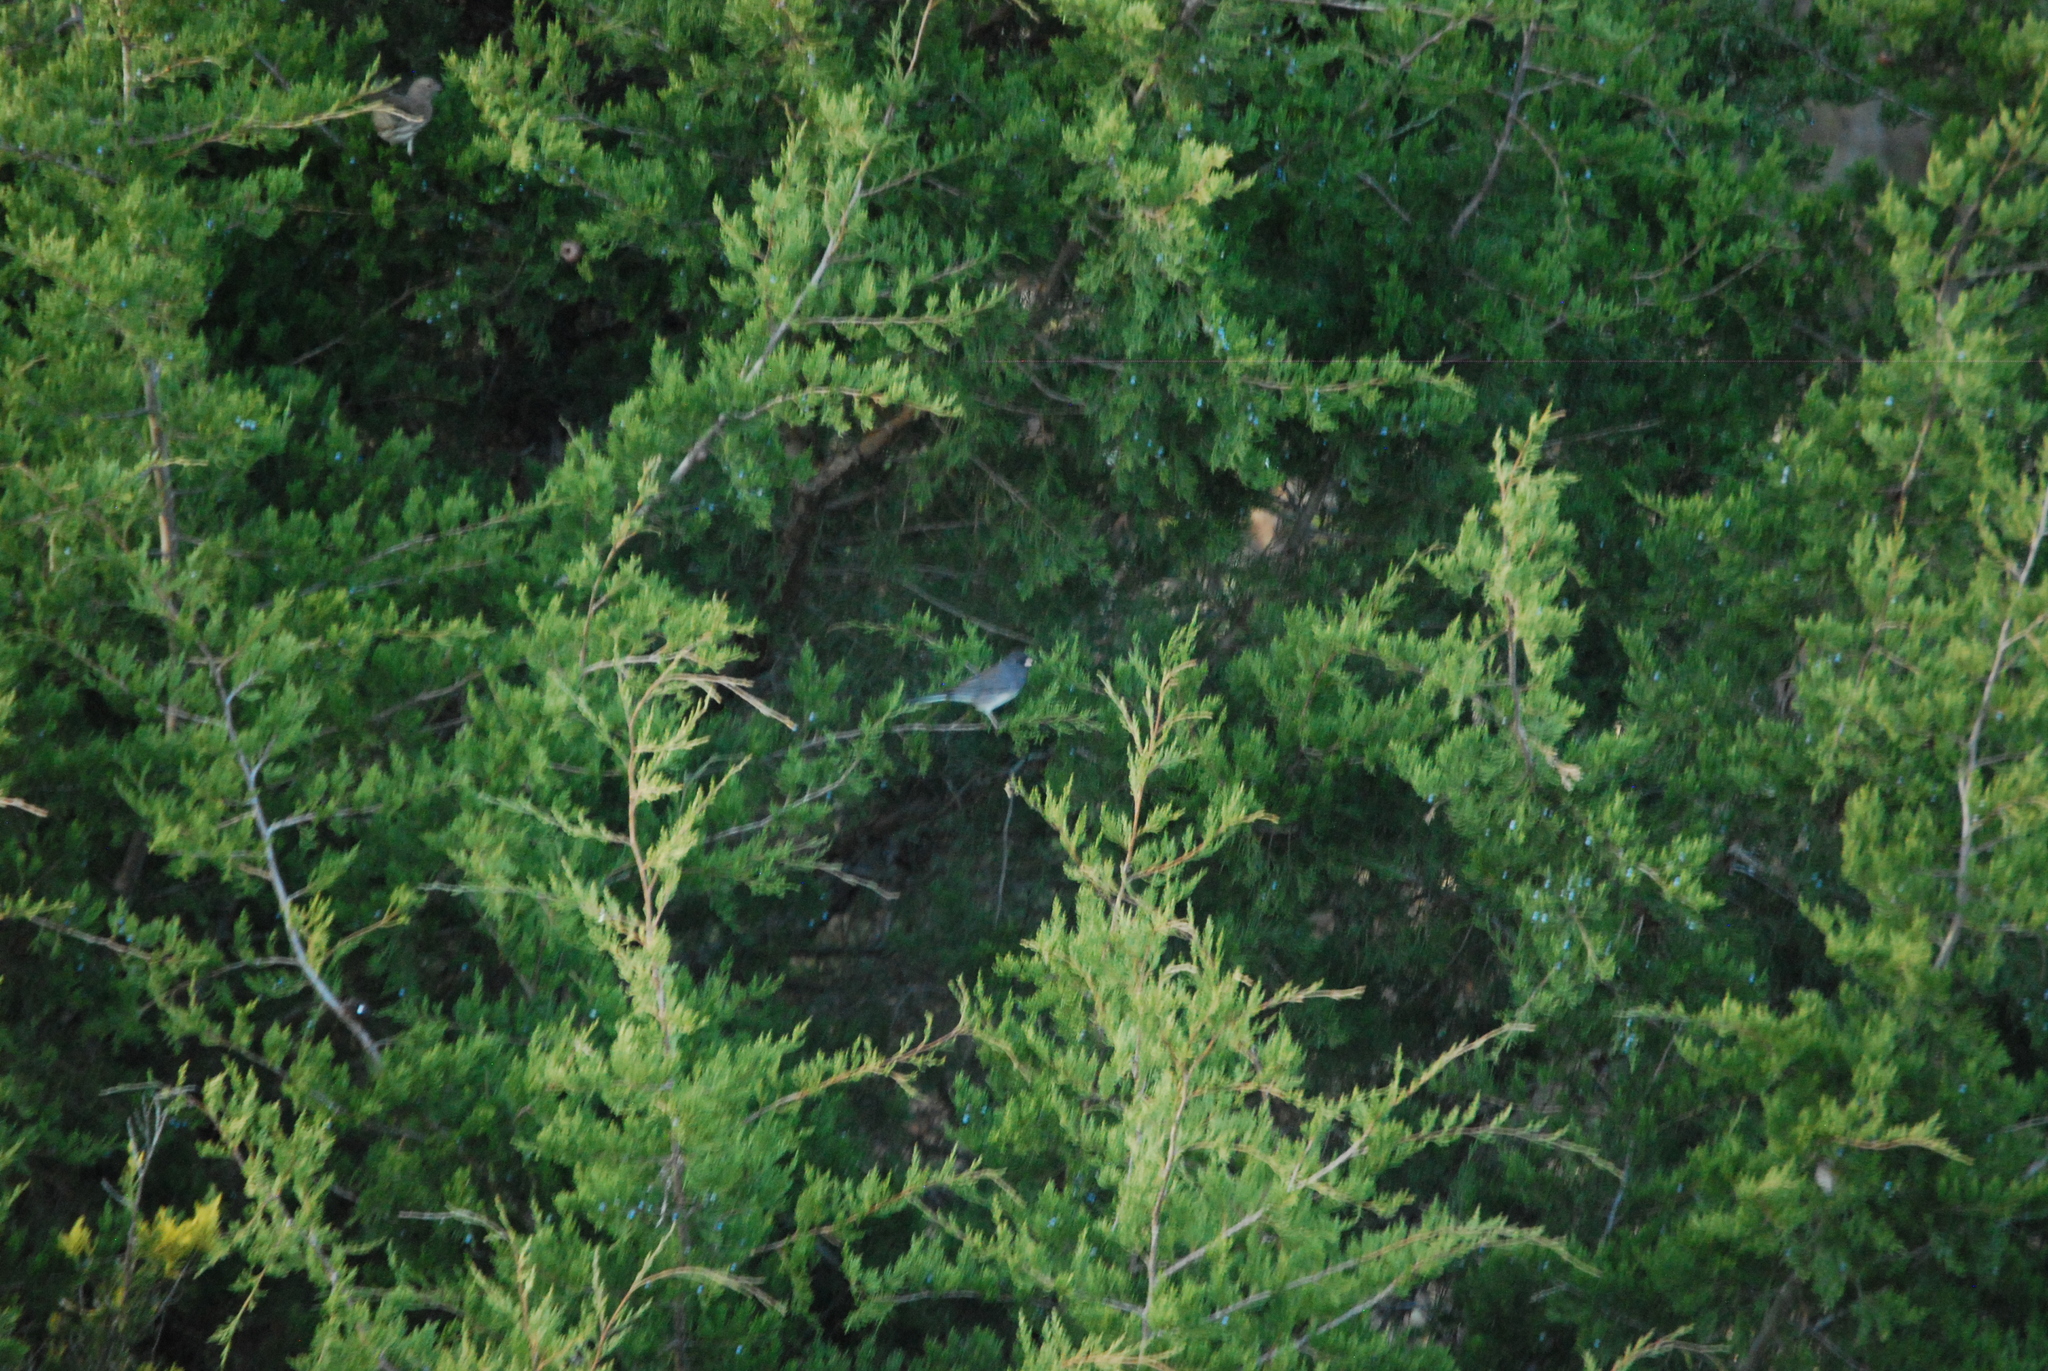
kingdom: Animalia
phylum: Chordata
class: Aves
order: Passeriformes
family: Passerellidae
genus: Junco
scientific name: Junco hyemalis
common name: Dark-eyed junco
